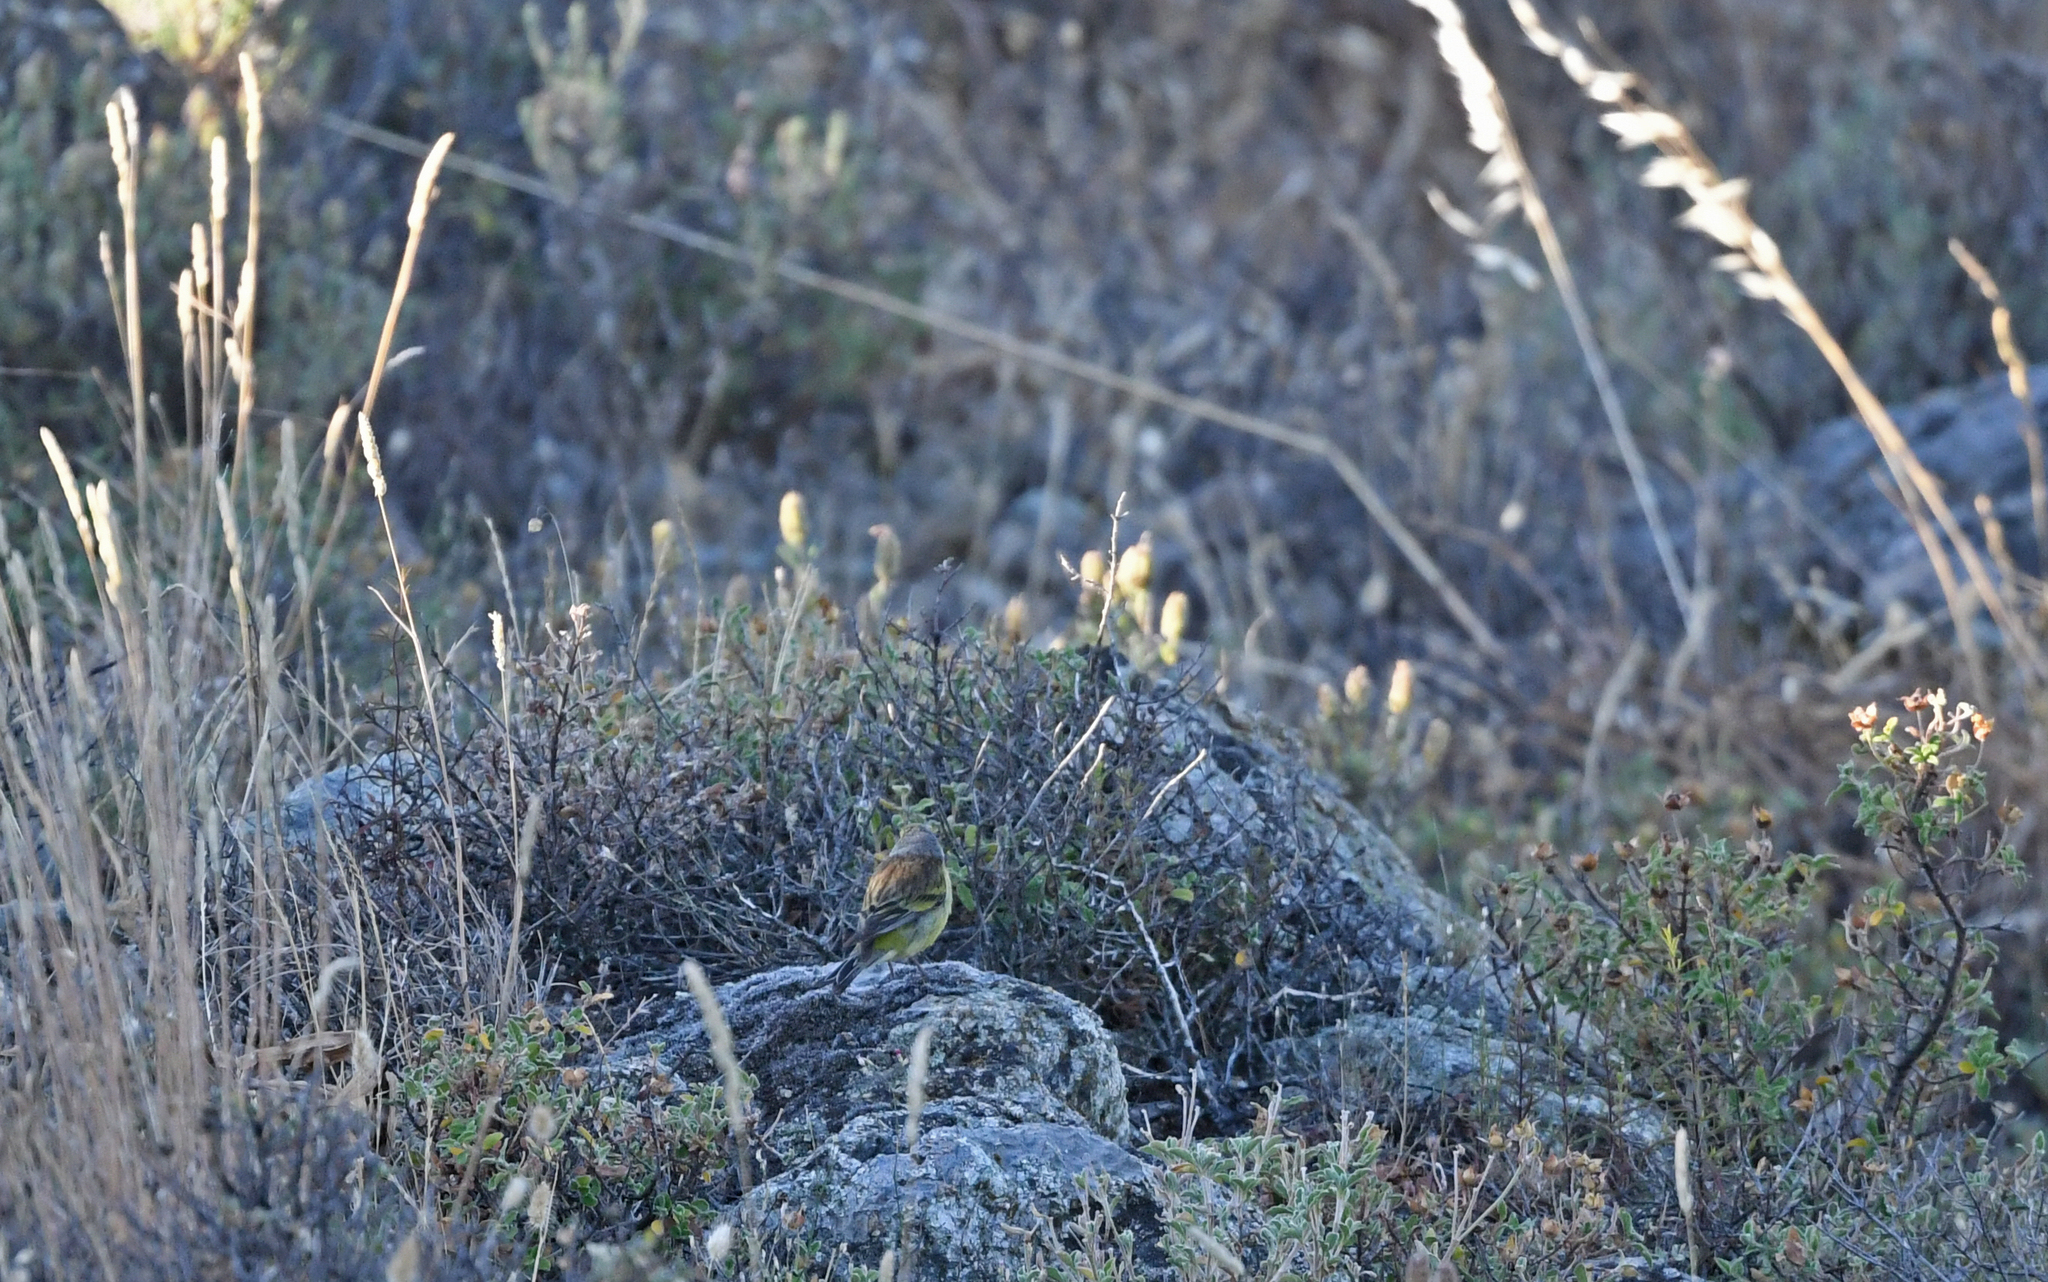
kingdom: Animalia
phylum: Chordata
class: Aves
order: Passeriformes
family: Fringillidae
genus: Carduelis
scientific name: Carduelis corsicana
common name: Corsican finch
